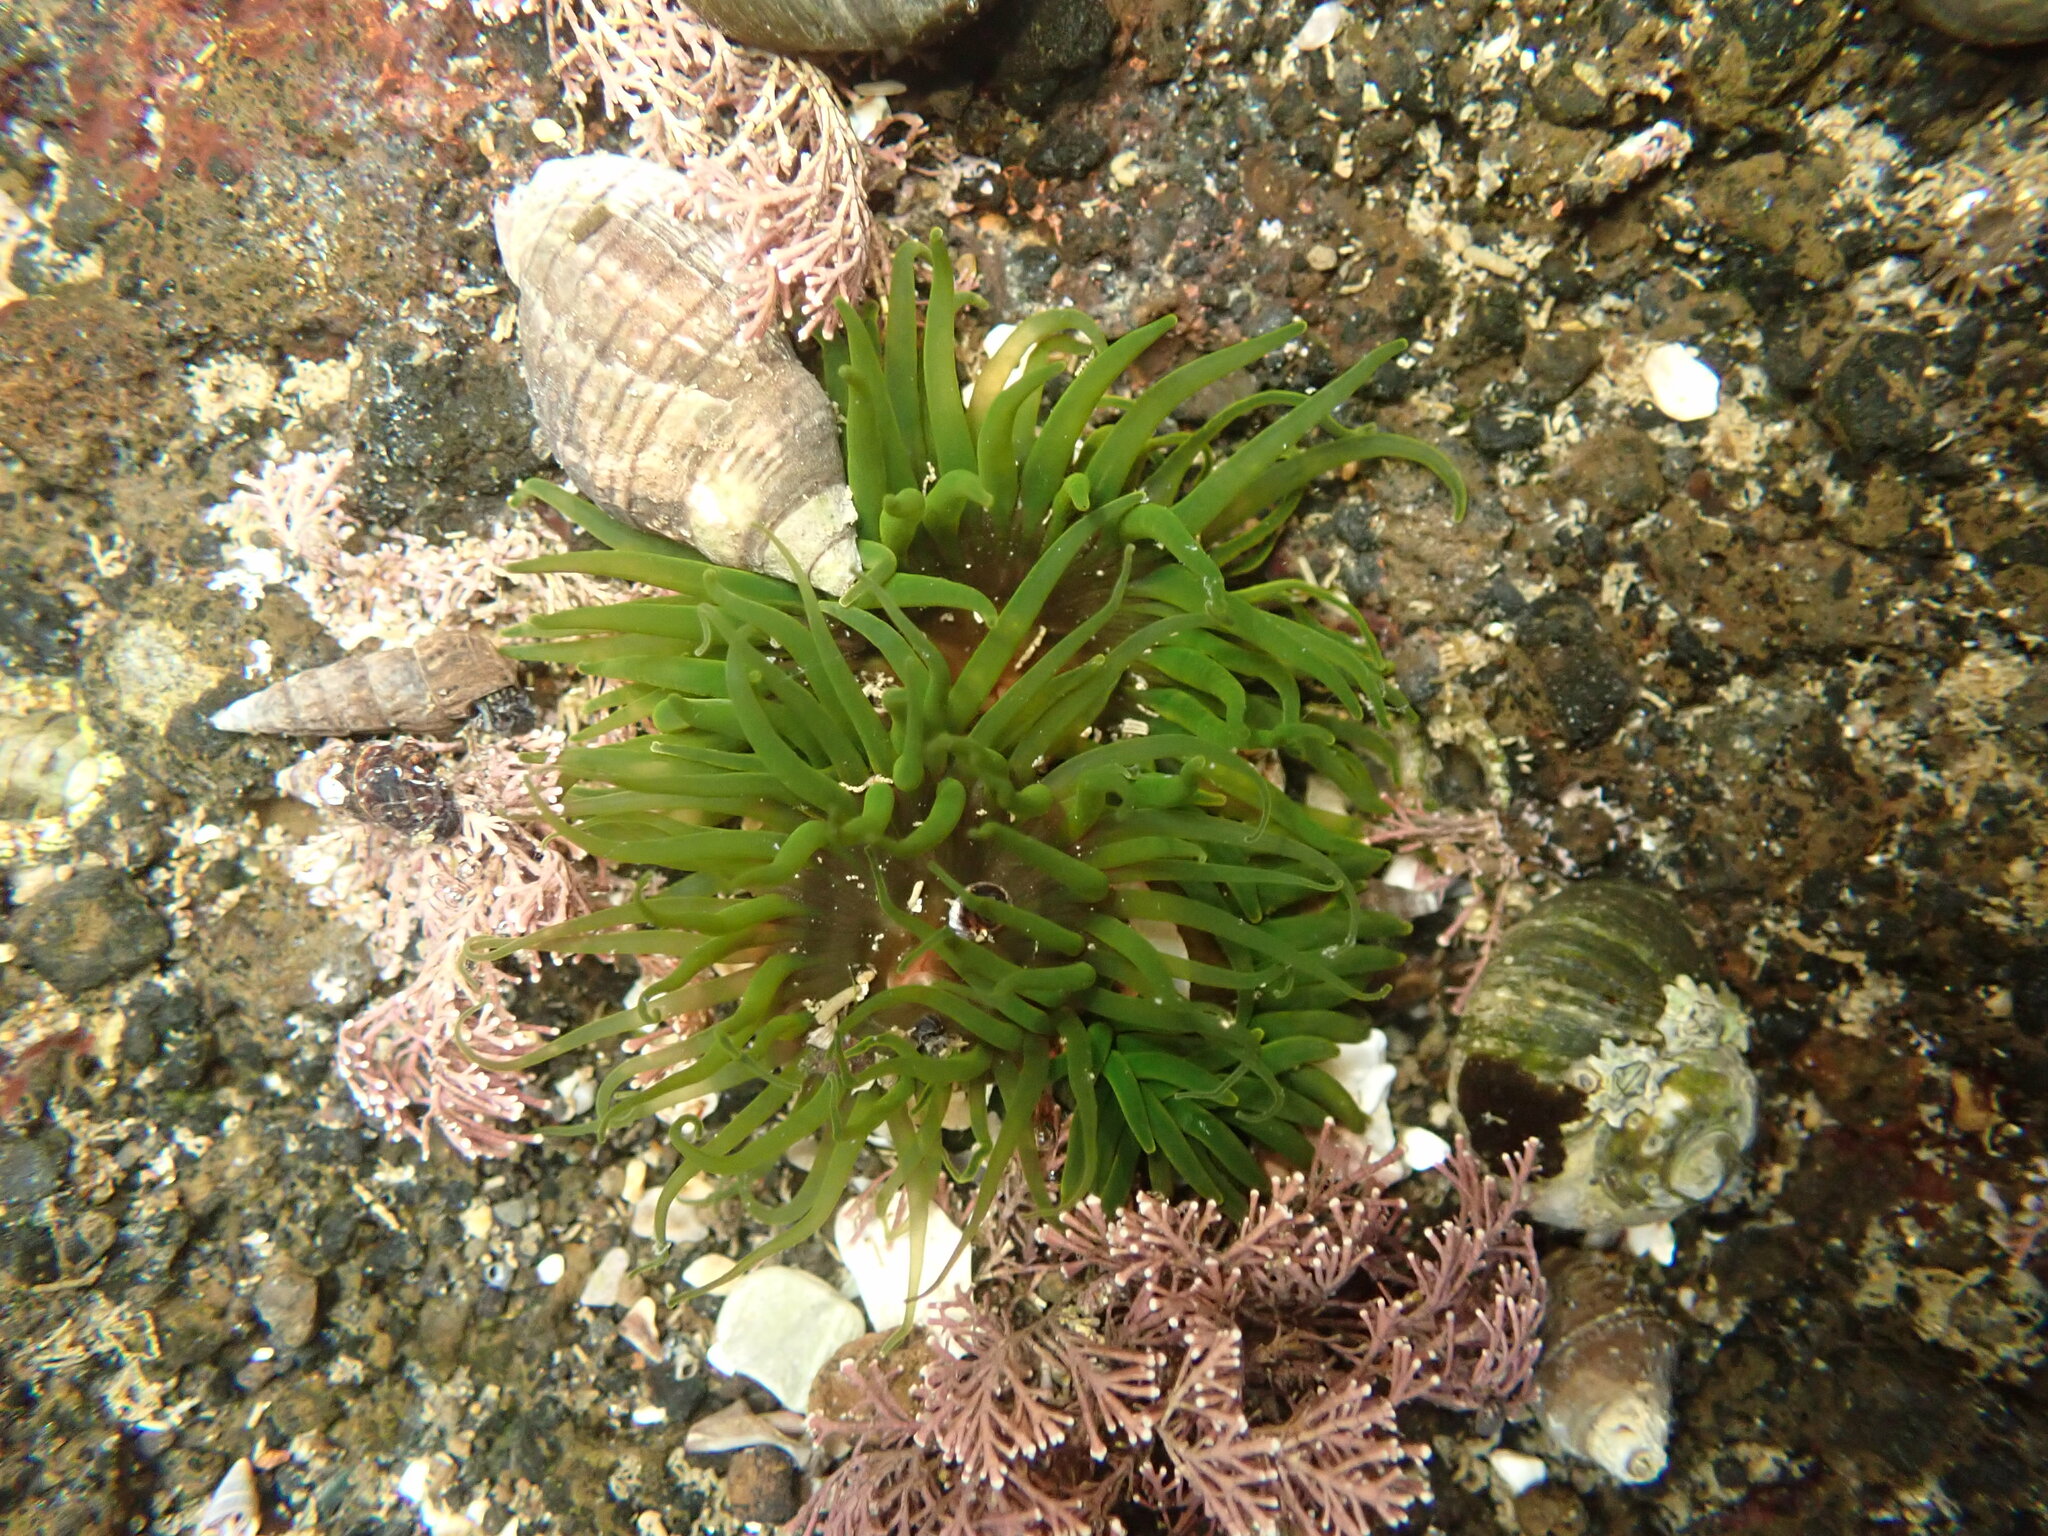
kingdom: Animalia
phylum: Cnidaria
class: Anthozoa
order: Actiniaria
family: Actiniidae
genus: Aulactinia
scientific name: Aulactinia veratra
